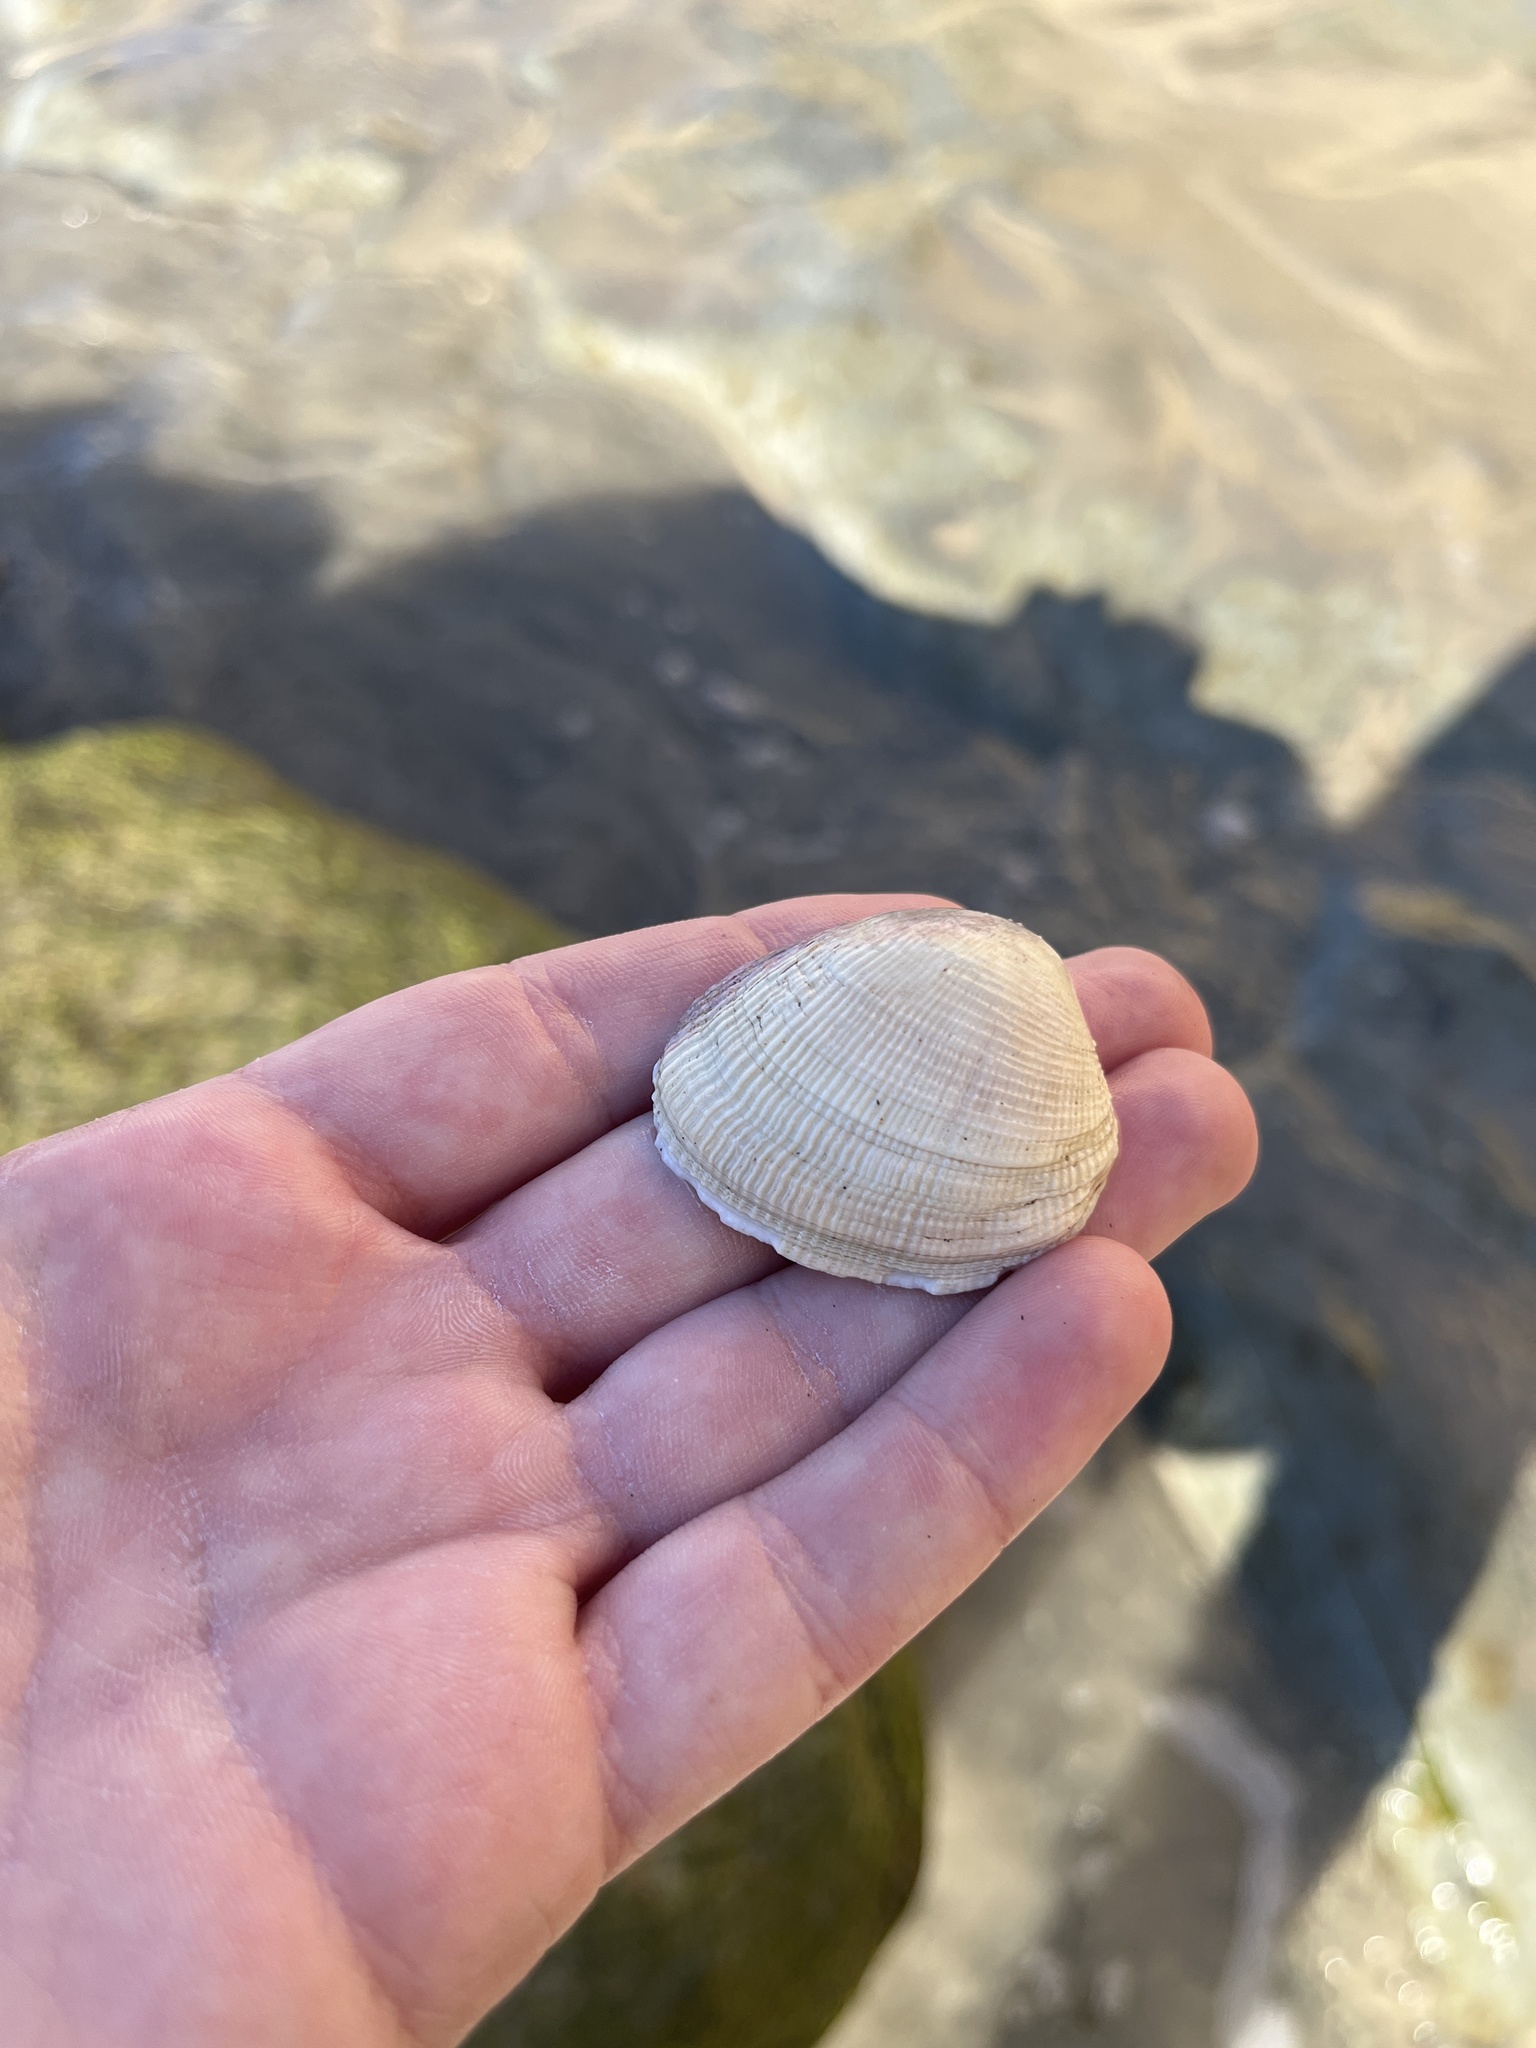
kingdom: Animalia
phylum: Mollusca
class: Bivalvia
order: Venerida
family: Veneridae
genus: Leukoma
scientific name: Leukoma staminea
